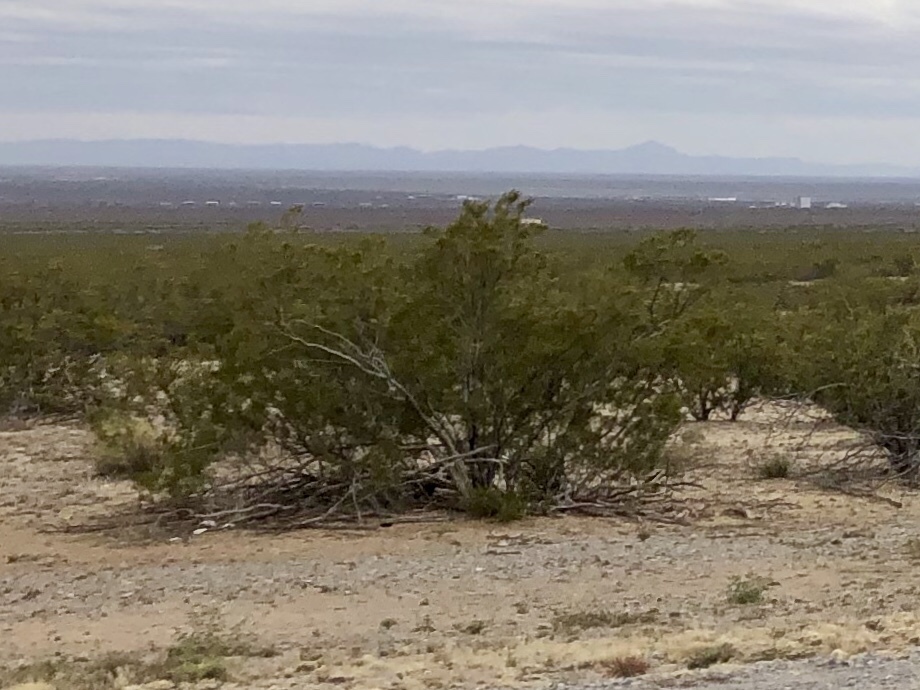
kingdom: Plantae
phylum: Tracheophyta
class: Magnoliopsida
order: Zygophyllales
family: Zygophyllaceae
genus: Larrea
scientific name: Larrea tridentata
